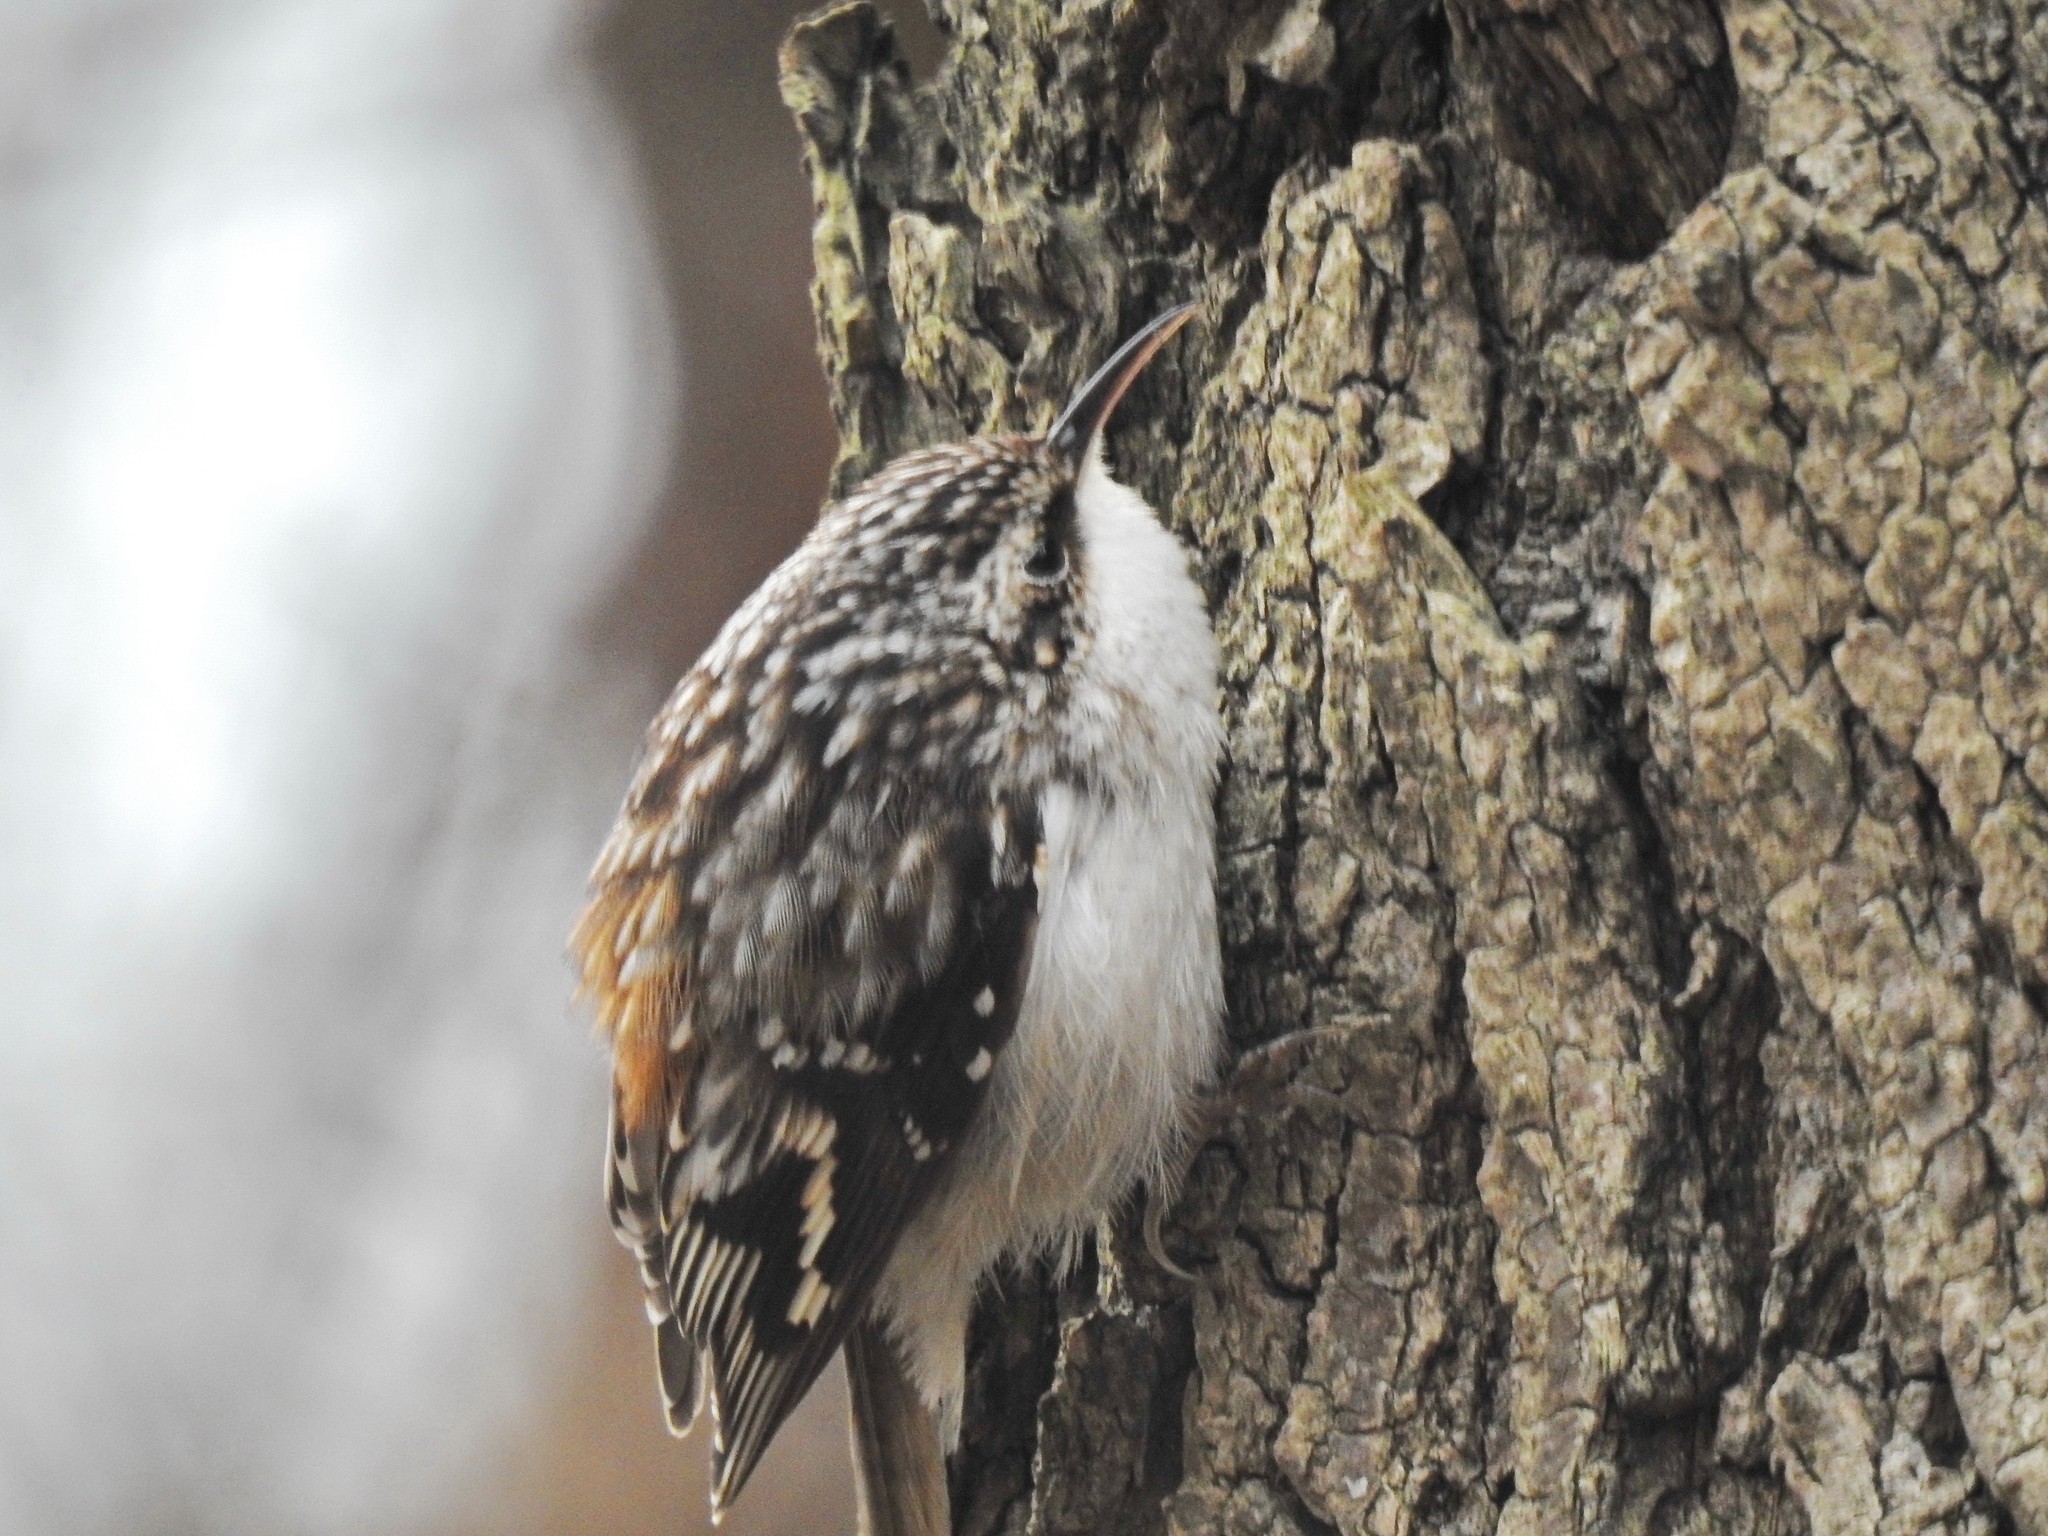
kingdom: Animalia
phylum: Chordata
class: Aves
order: Passeriformes
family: Certhiidae
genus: Certhia
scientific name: Certhia americana
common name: Brown creeper
